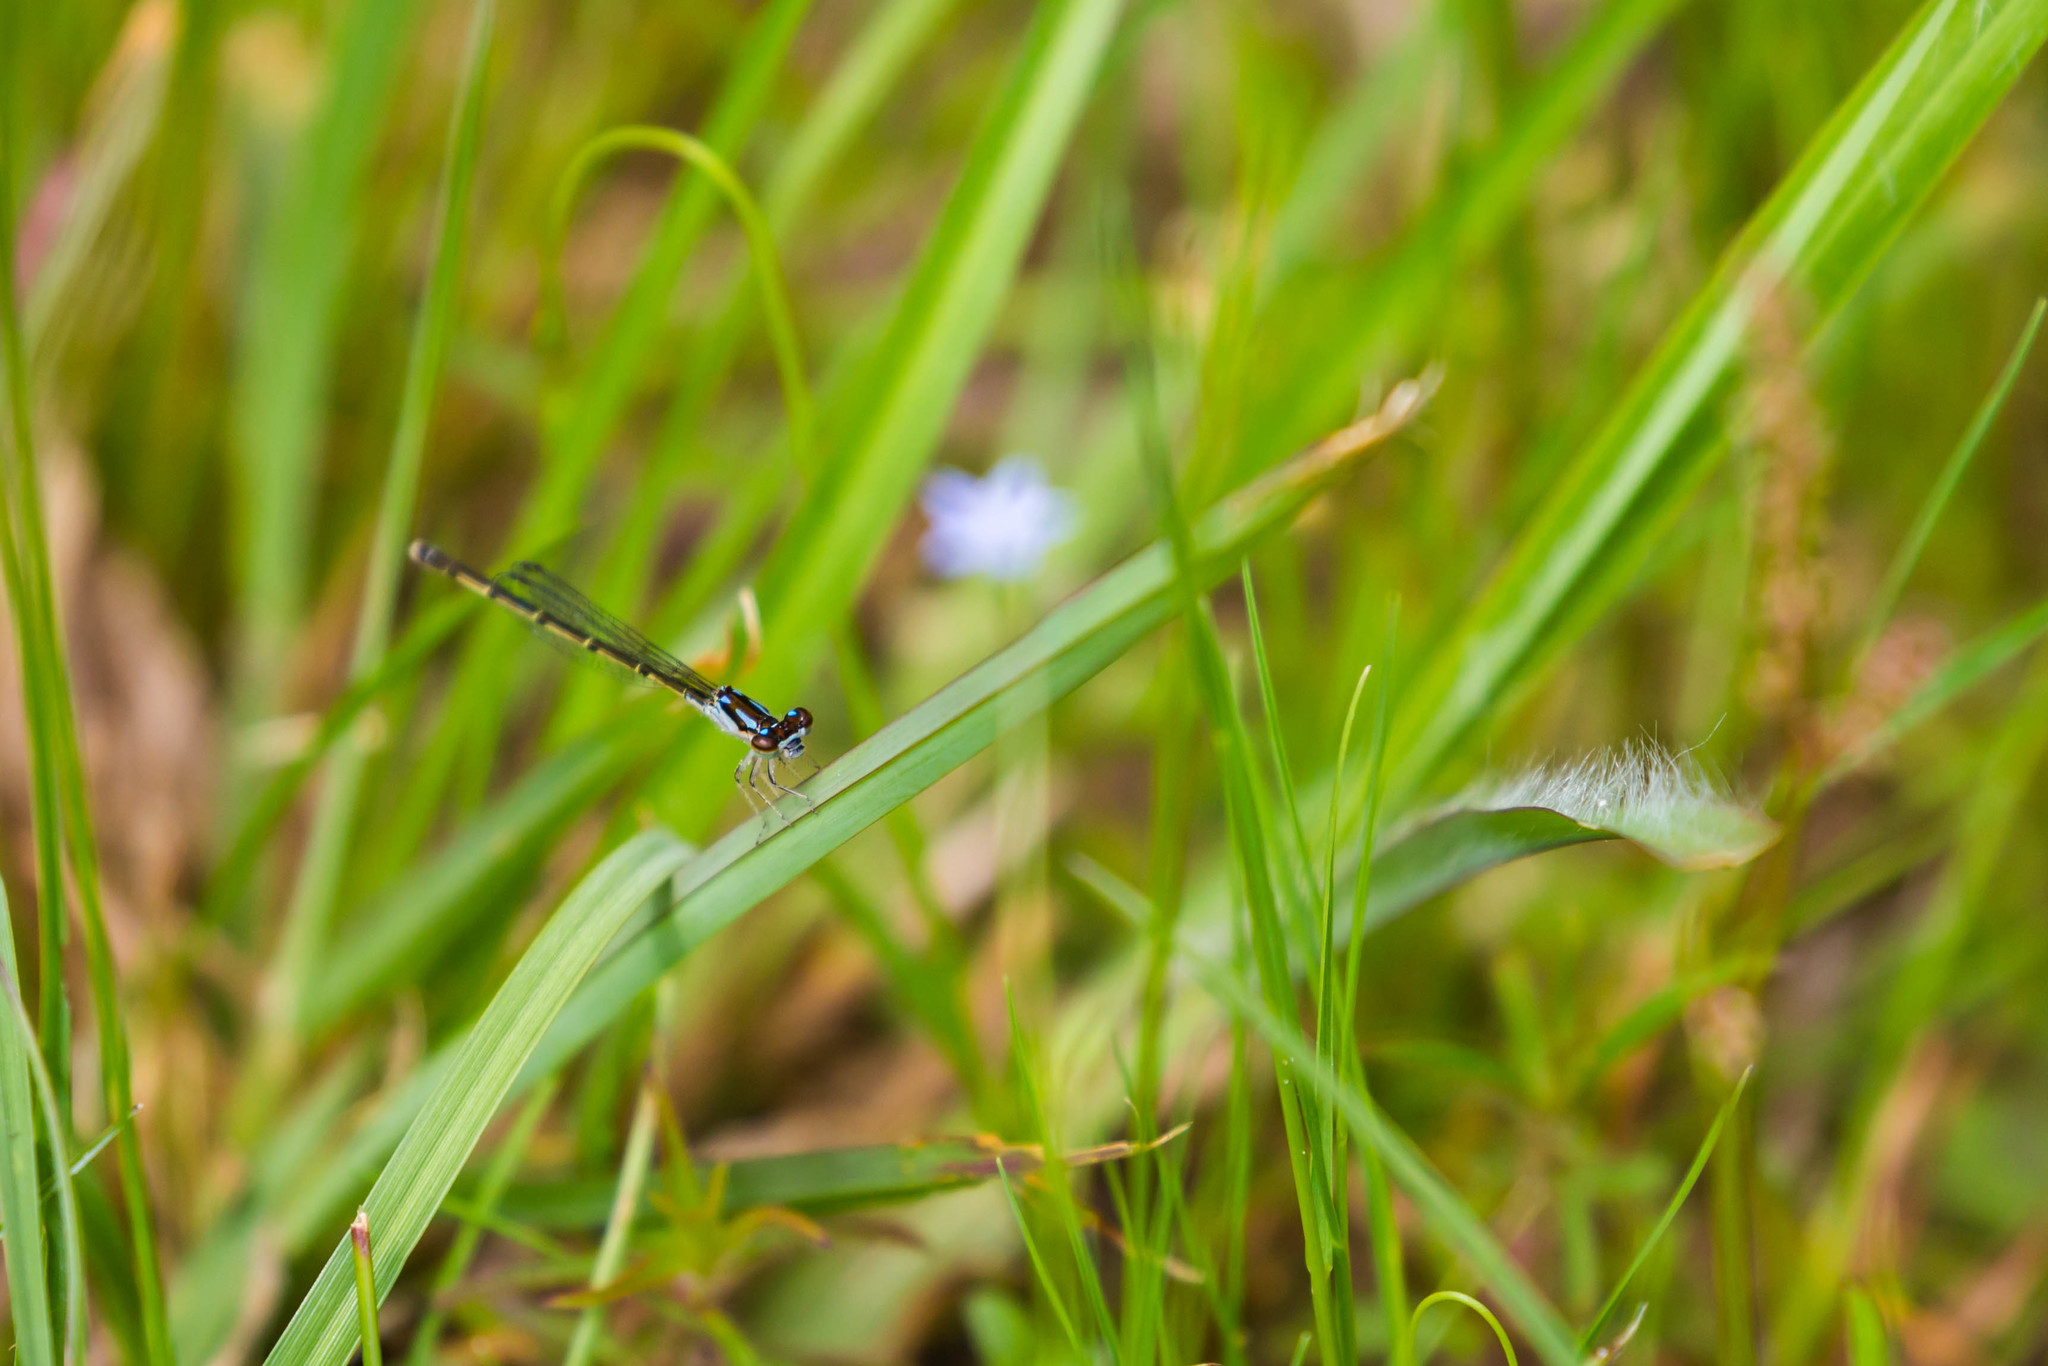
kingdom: Animalia
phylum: Arthropoda
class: Insecta
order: Odonata
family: Coenagrionidae
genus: Ischnura
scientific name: Ischnura posita
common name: Fragile forktail
